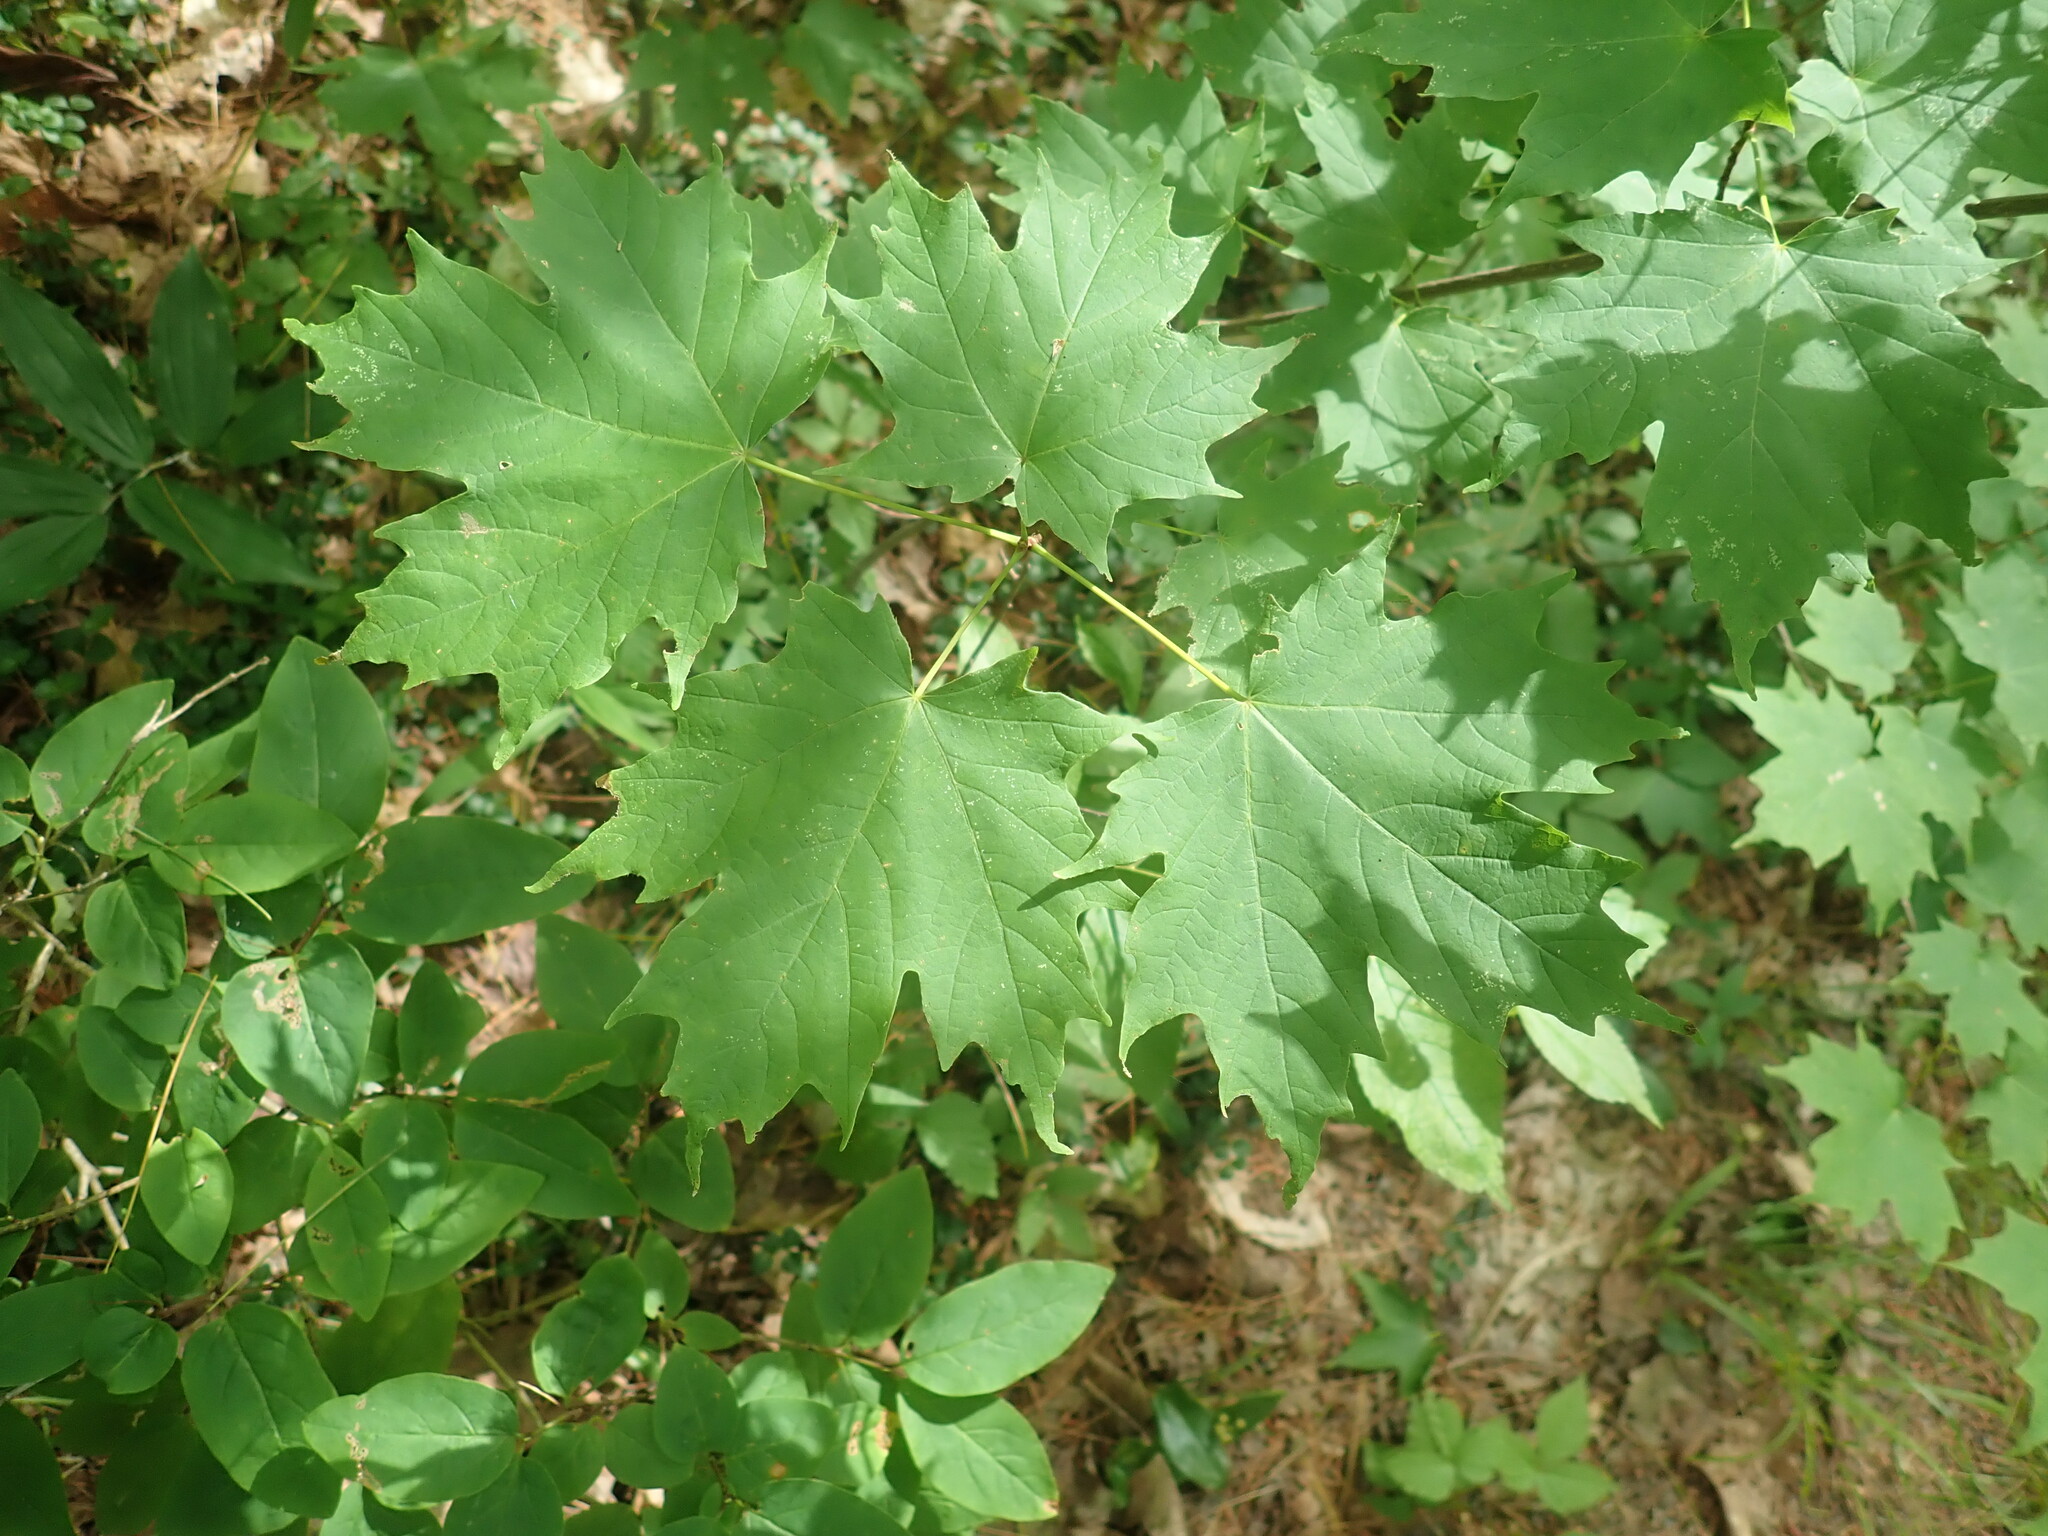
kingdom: Plantae
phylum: Tracheophyta
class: Magnoliopsida
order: Sapindales
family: Sapindaceae
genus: Acer
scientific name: Acer saccharum
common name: Sugar maple
